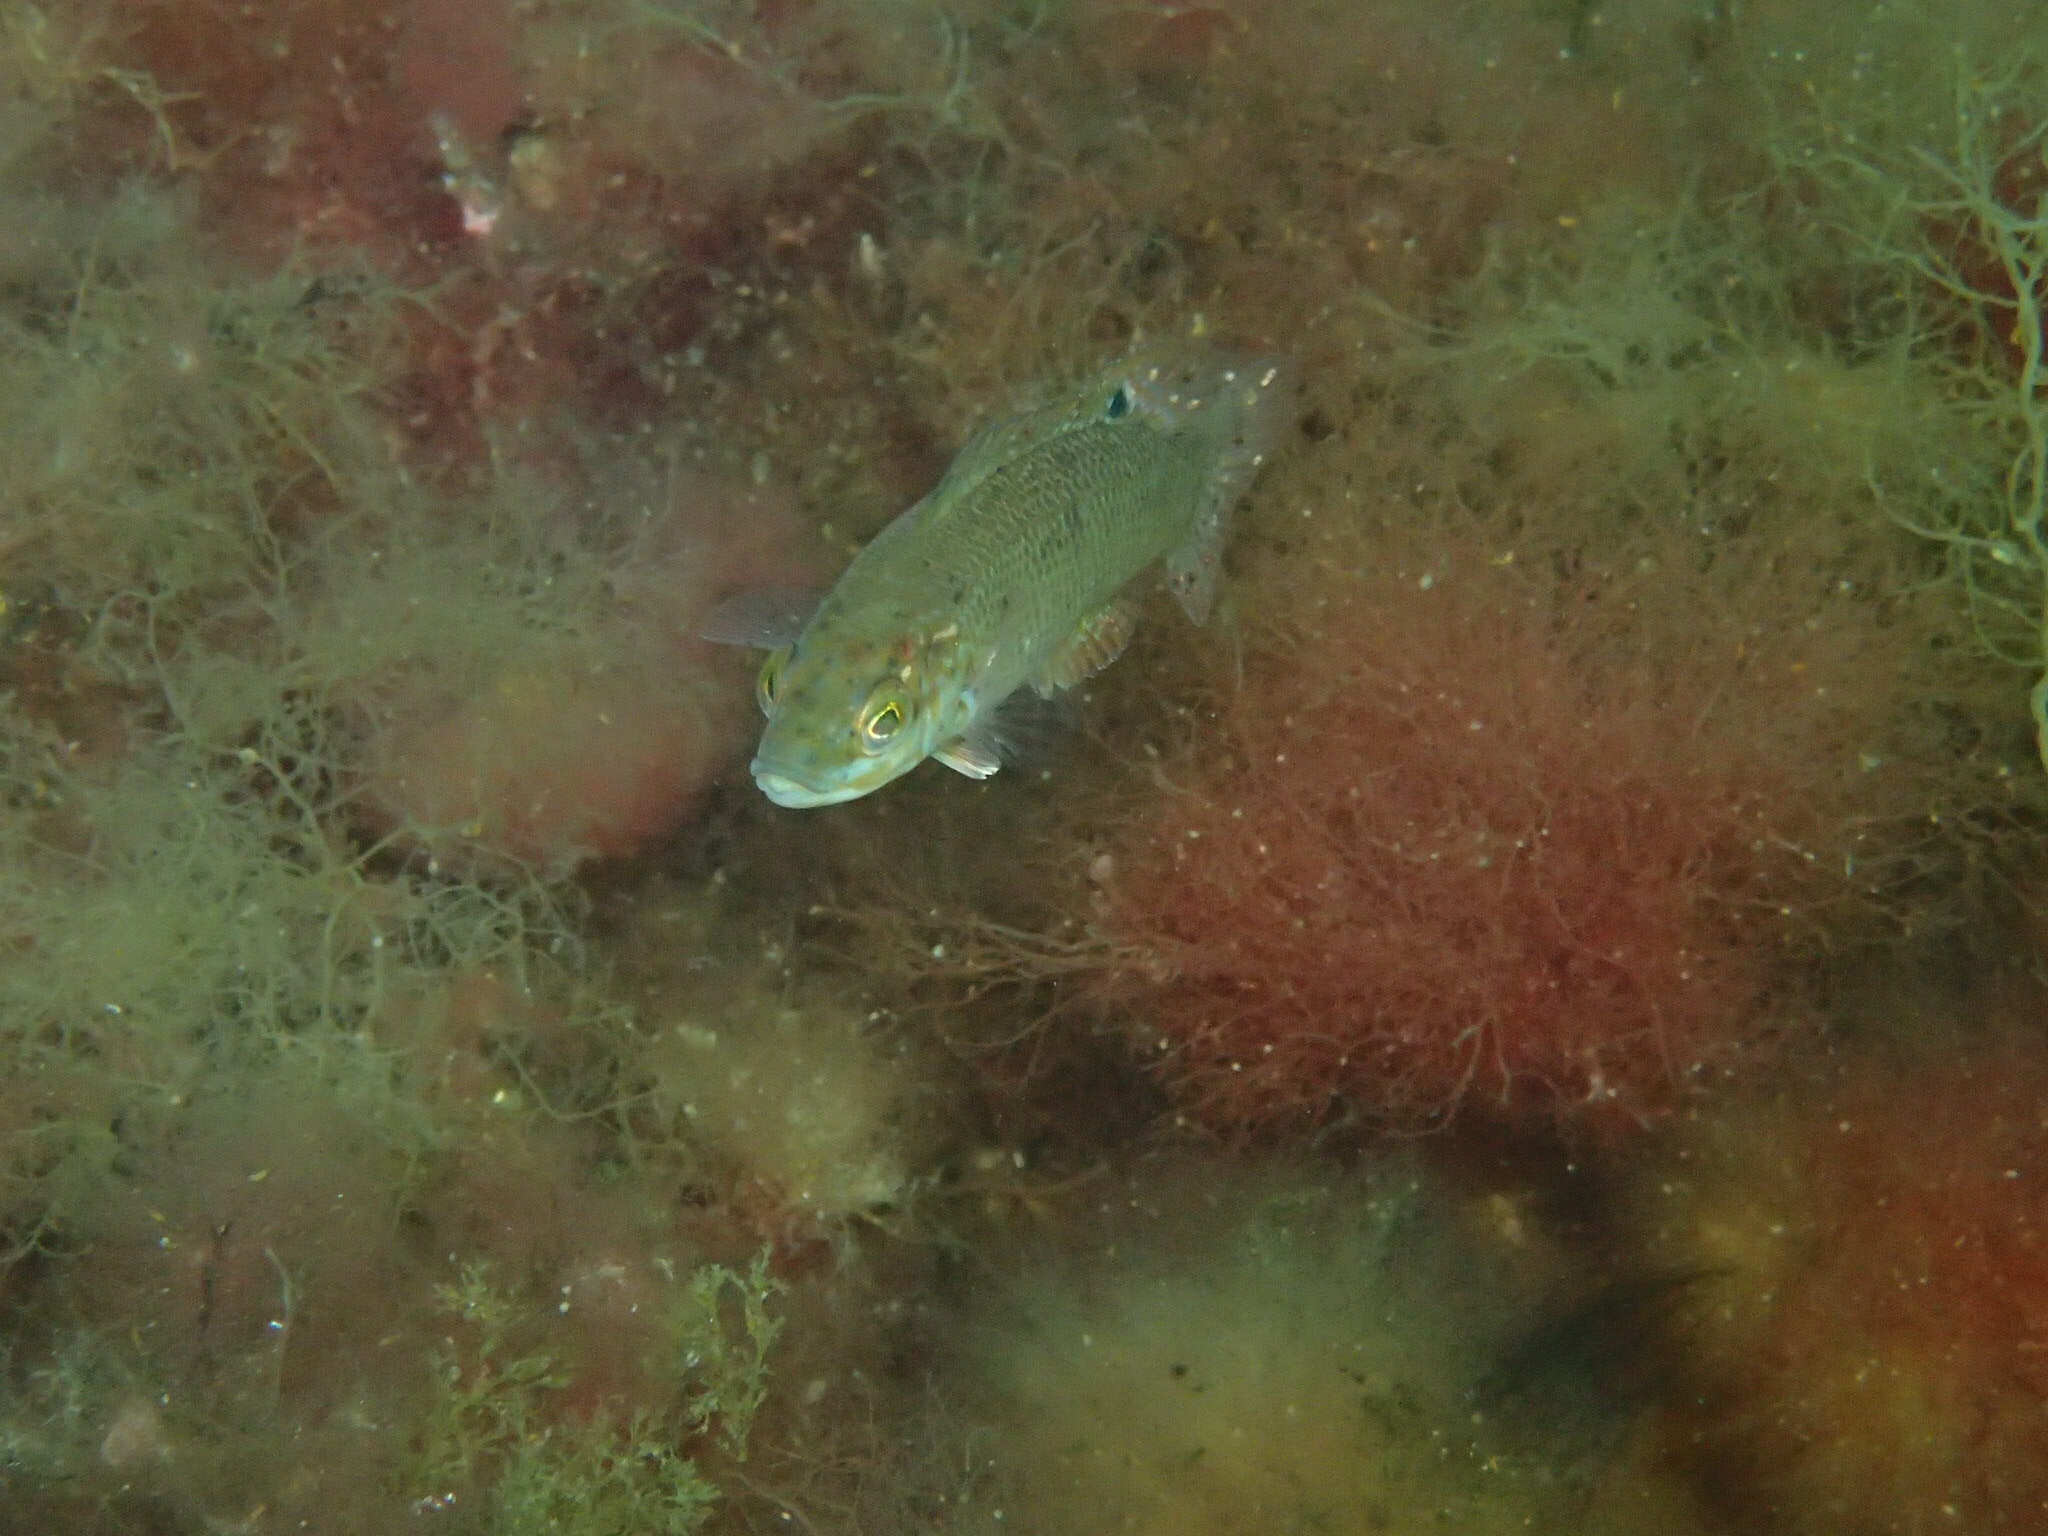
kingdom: Animalia
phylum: Chordata
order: Perciformes
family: Labridae
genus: Tautogolabrus
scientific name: Tautogolabrus adspersus
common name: Cunner
